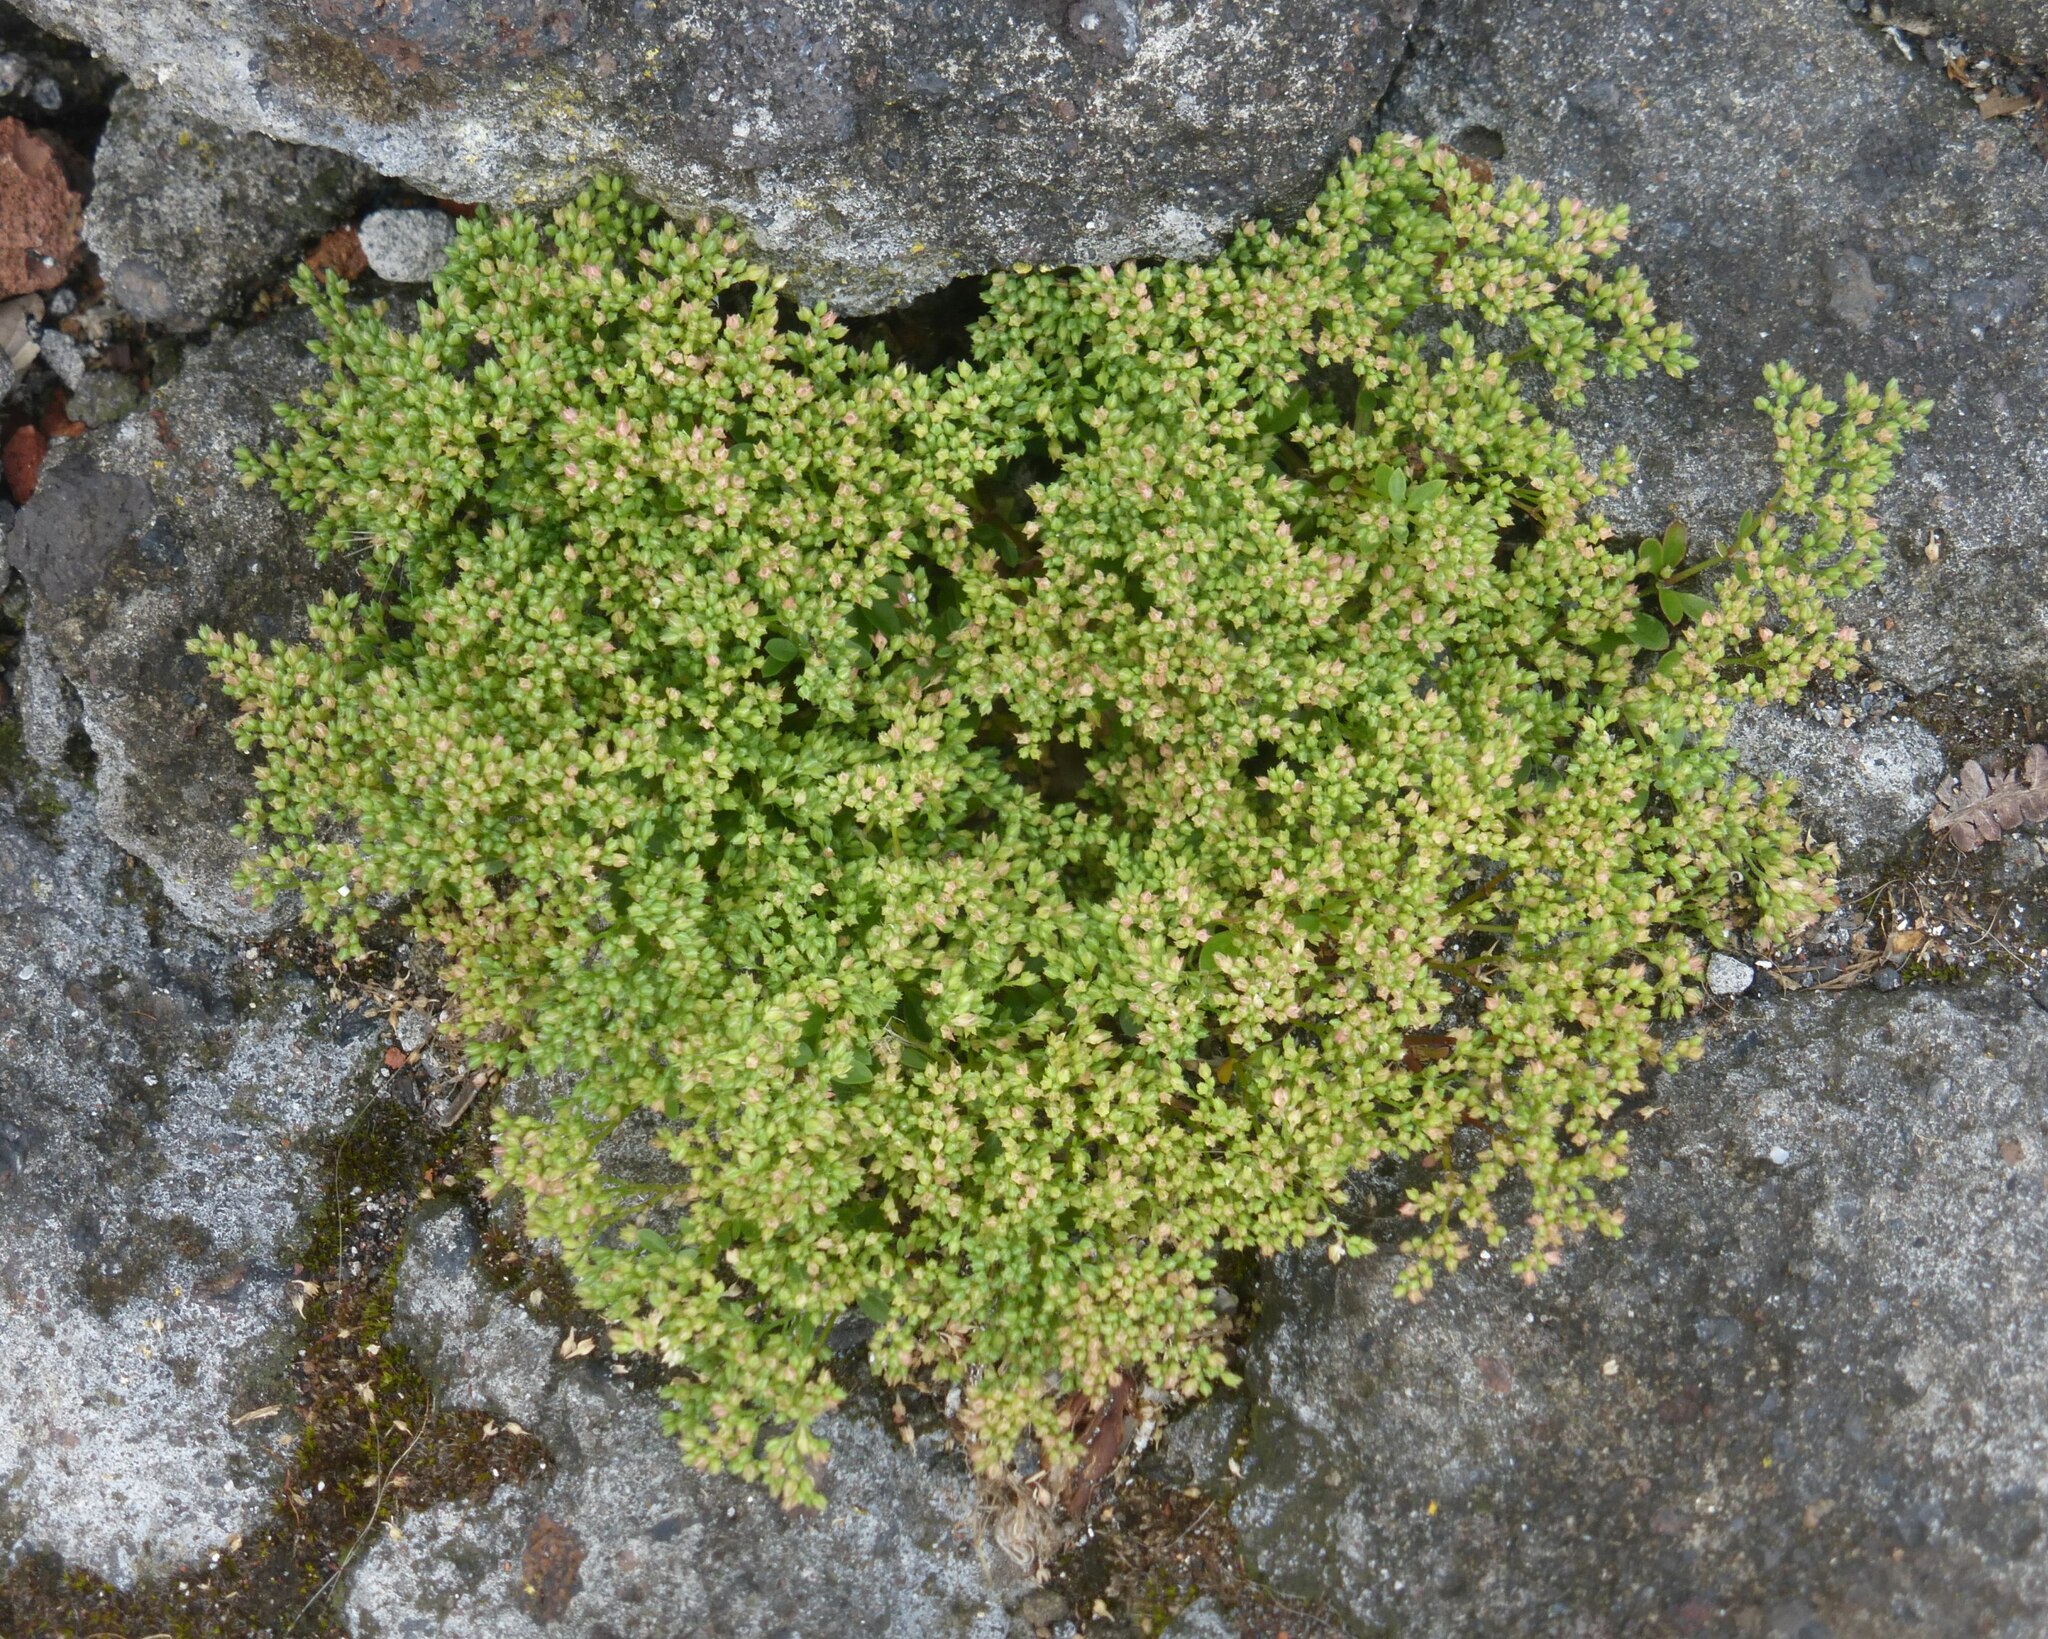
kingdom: Plantae
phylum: Tracheophyta
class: Magnoliopsida
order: Caryophyllales
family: Caryophyllaceae
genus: Polycarpon
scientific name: Polycarpon tetraphyllum
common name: Four-leaved all-seed
